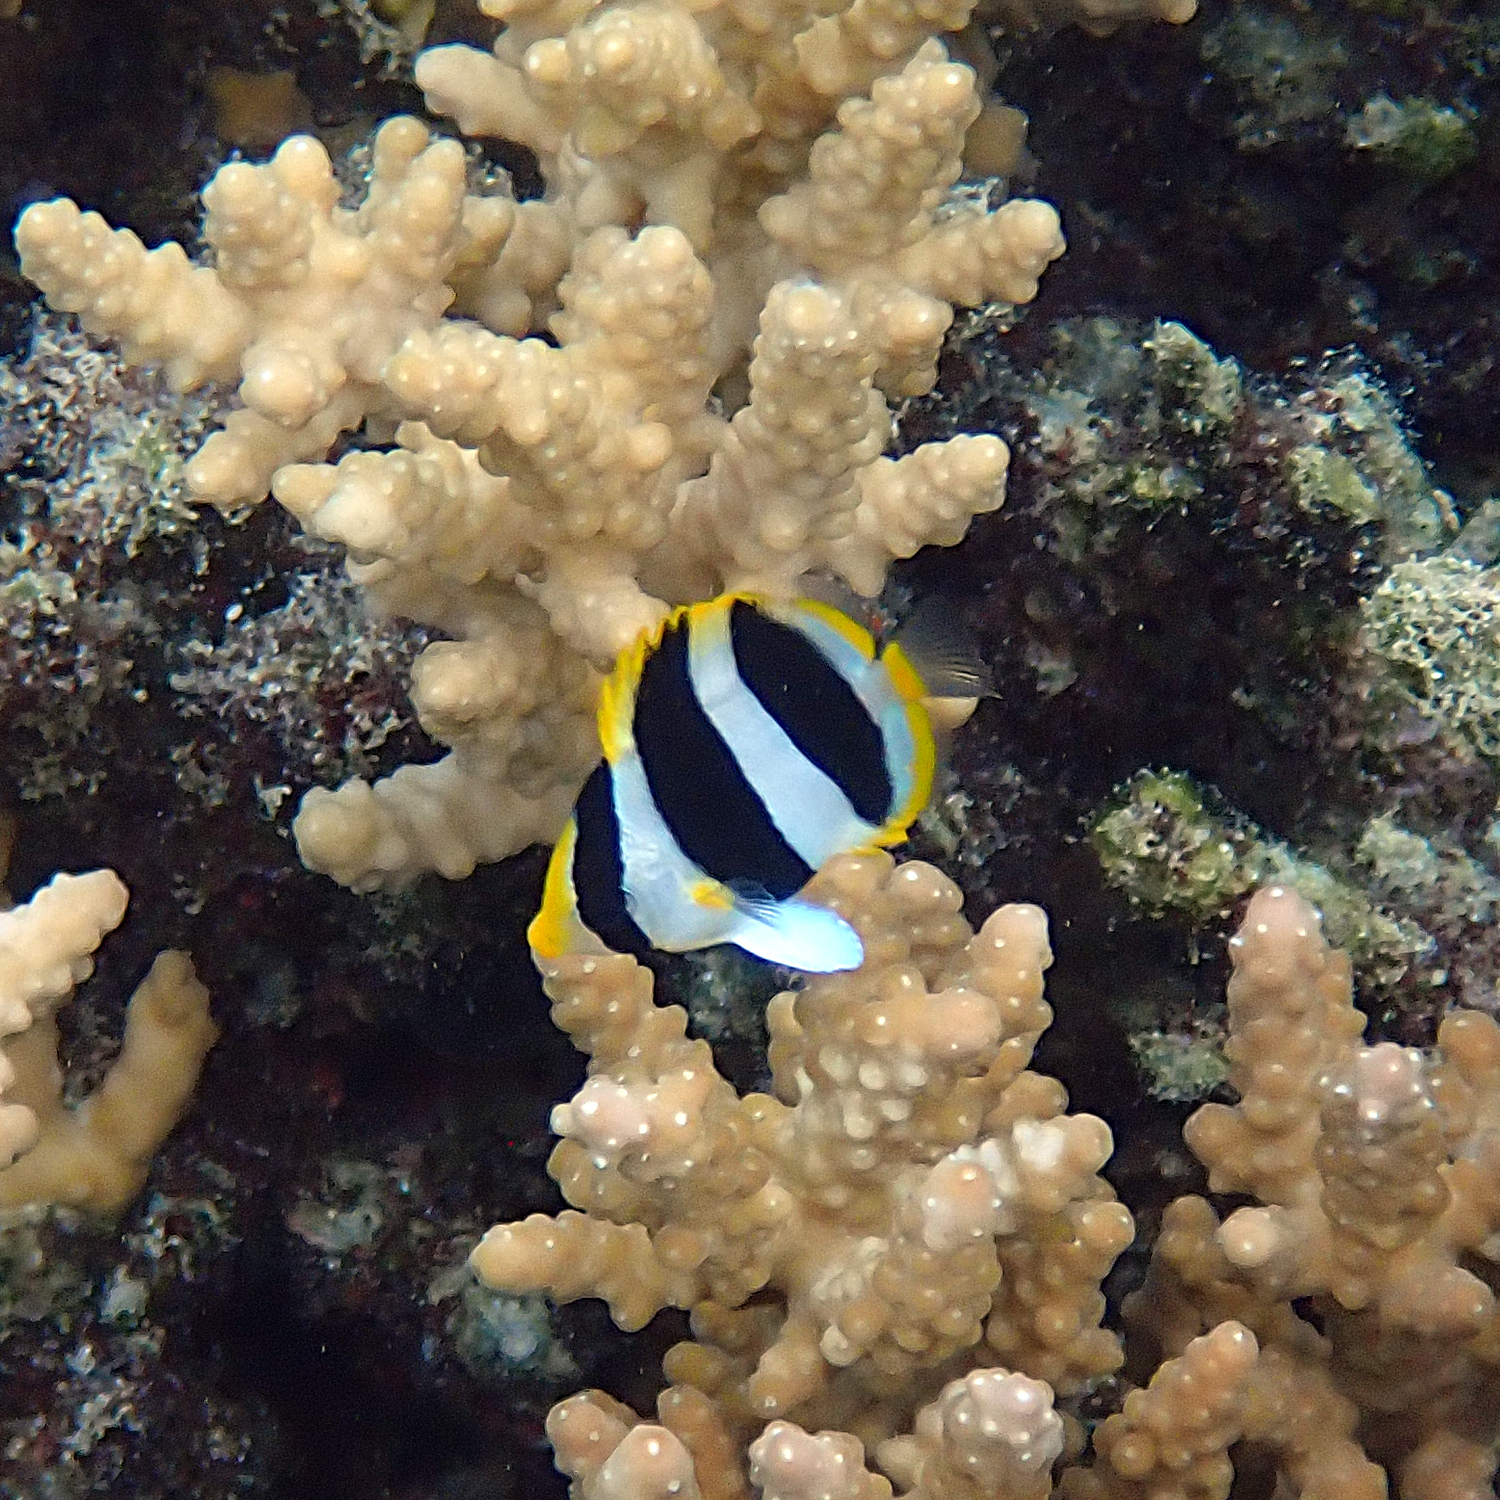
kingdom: Animalia
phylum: Chordata
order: Perciformes
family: Chaetodontidae
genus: Chaetodon
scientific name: Chaetodon tricinctus
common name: Three-striped butterflyfish
